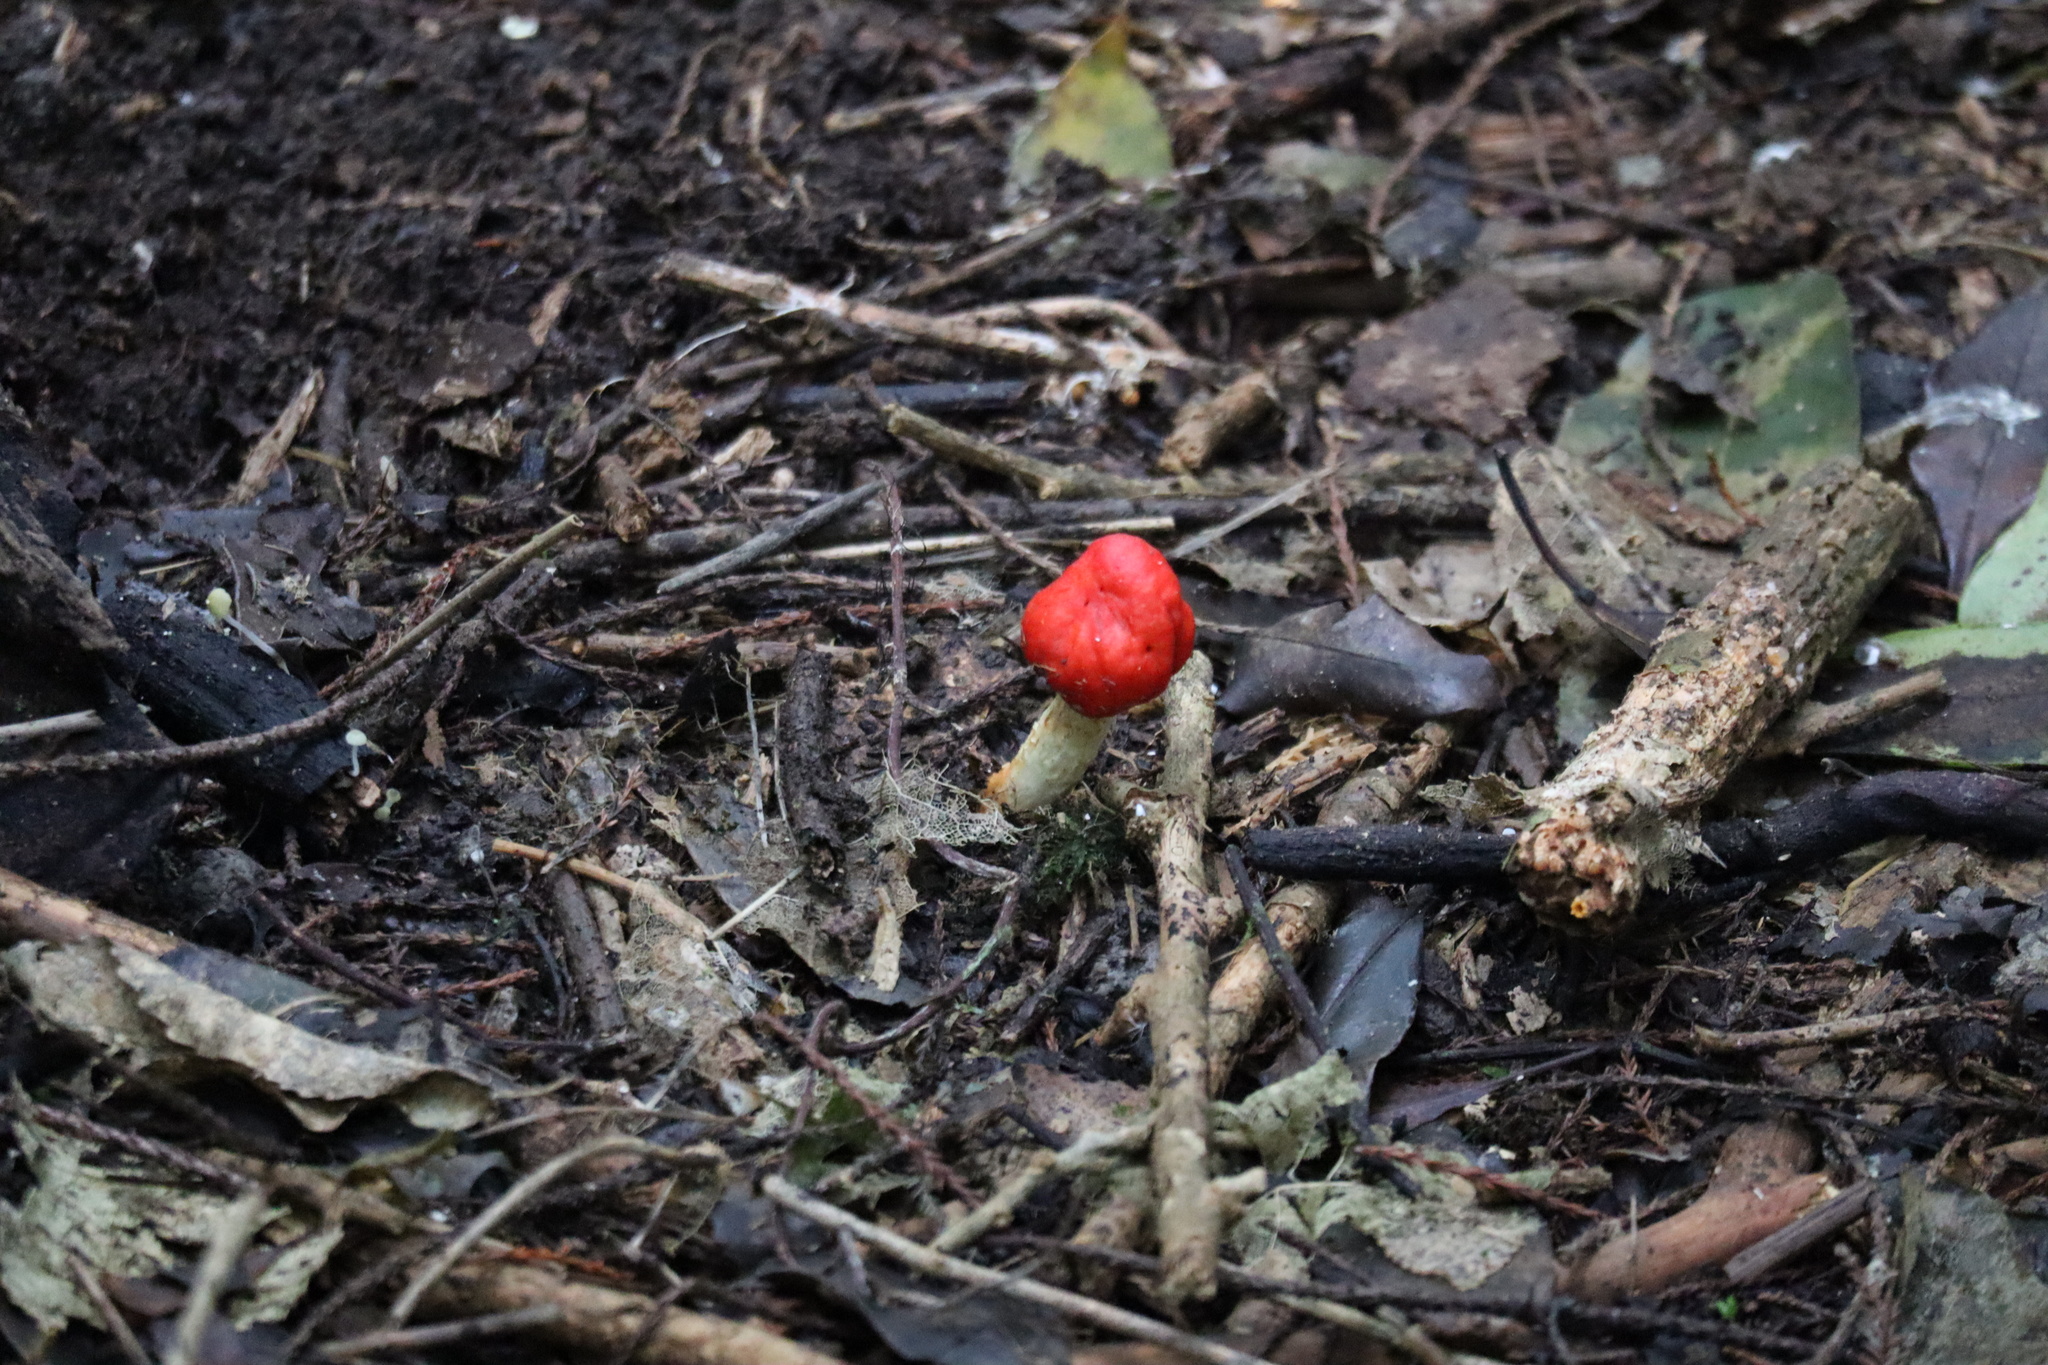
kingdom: Fungi
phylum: Basidiomycota
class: Agaricomycetes
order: Agaricales
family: Strophariaceae
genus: Leratiomyces
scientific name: Leratiomyces erythrocephalus
